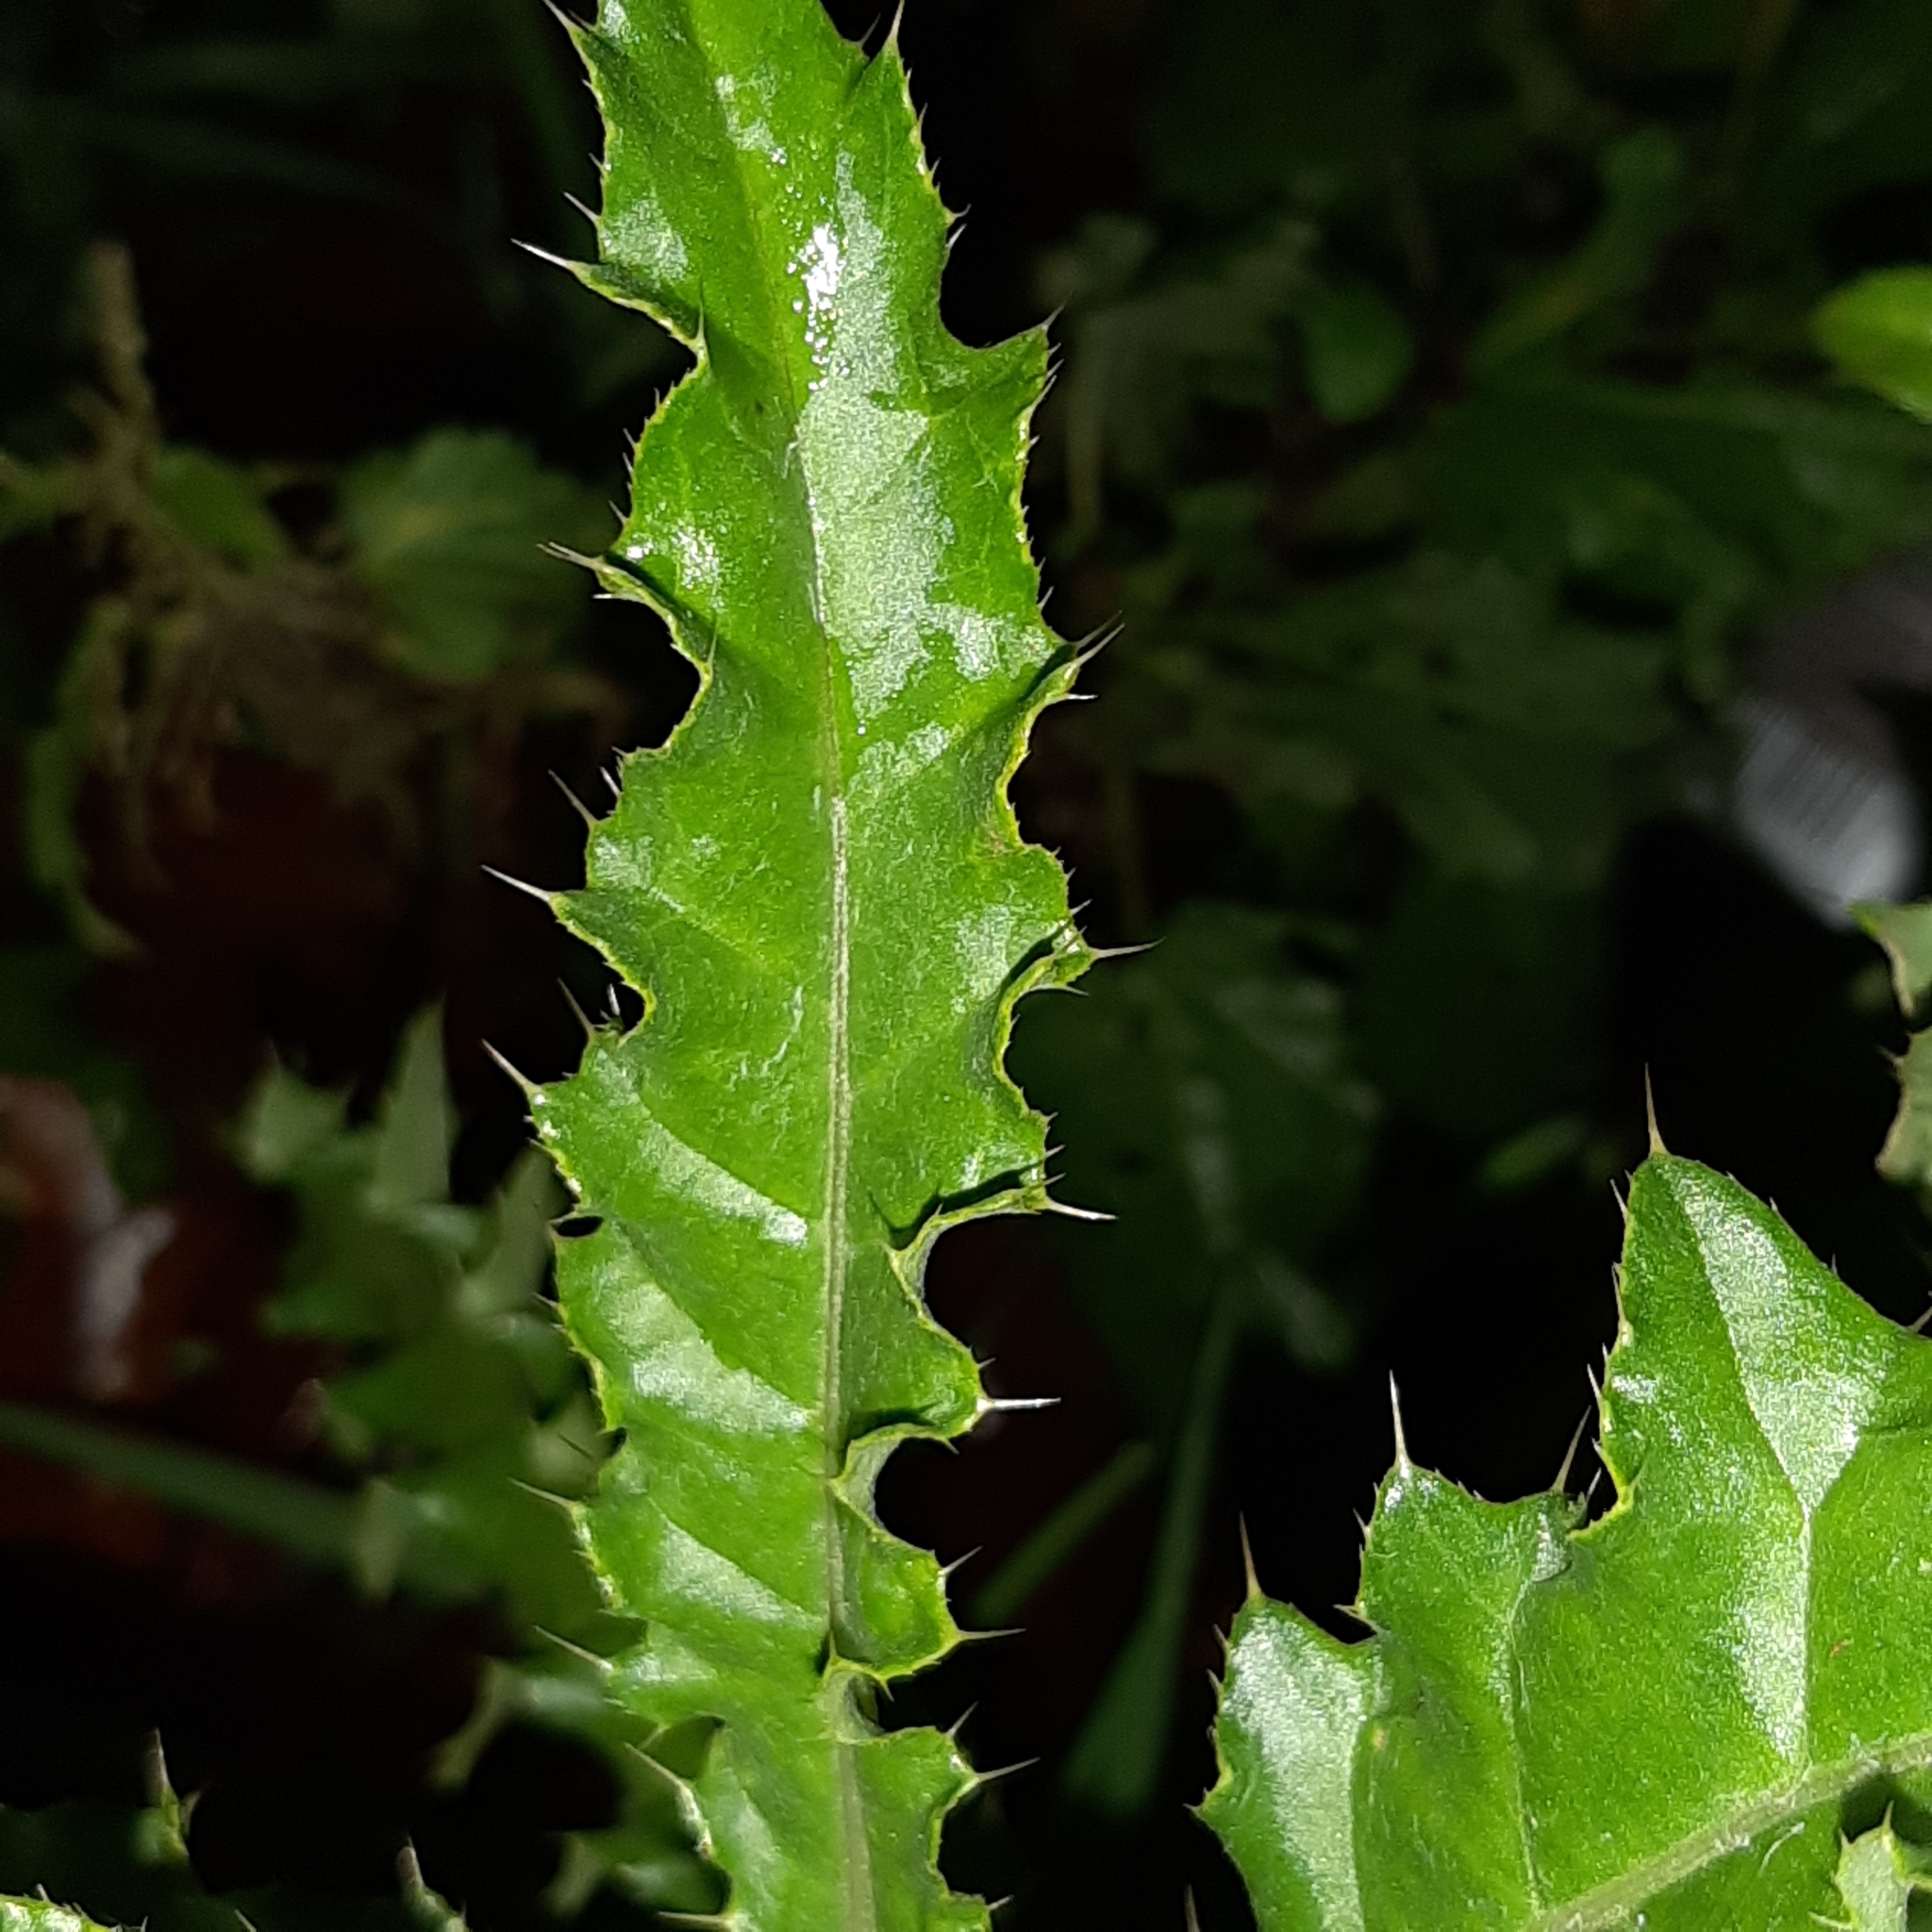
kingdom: Plantae
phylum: Tracheophyta
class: Magnoliopsida
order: Asterales
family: Asteraceae
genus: Cirsium
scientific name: Cirsium arvense
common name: Creeping thistle
